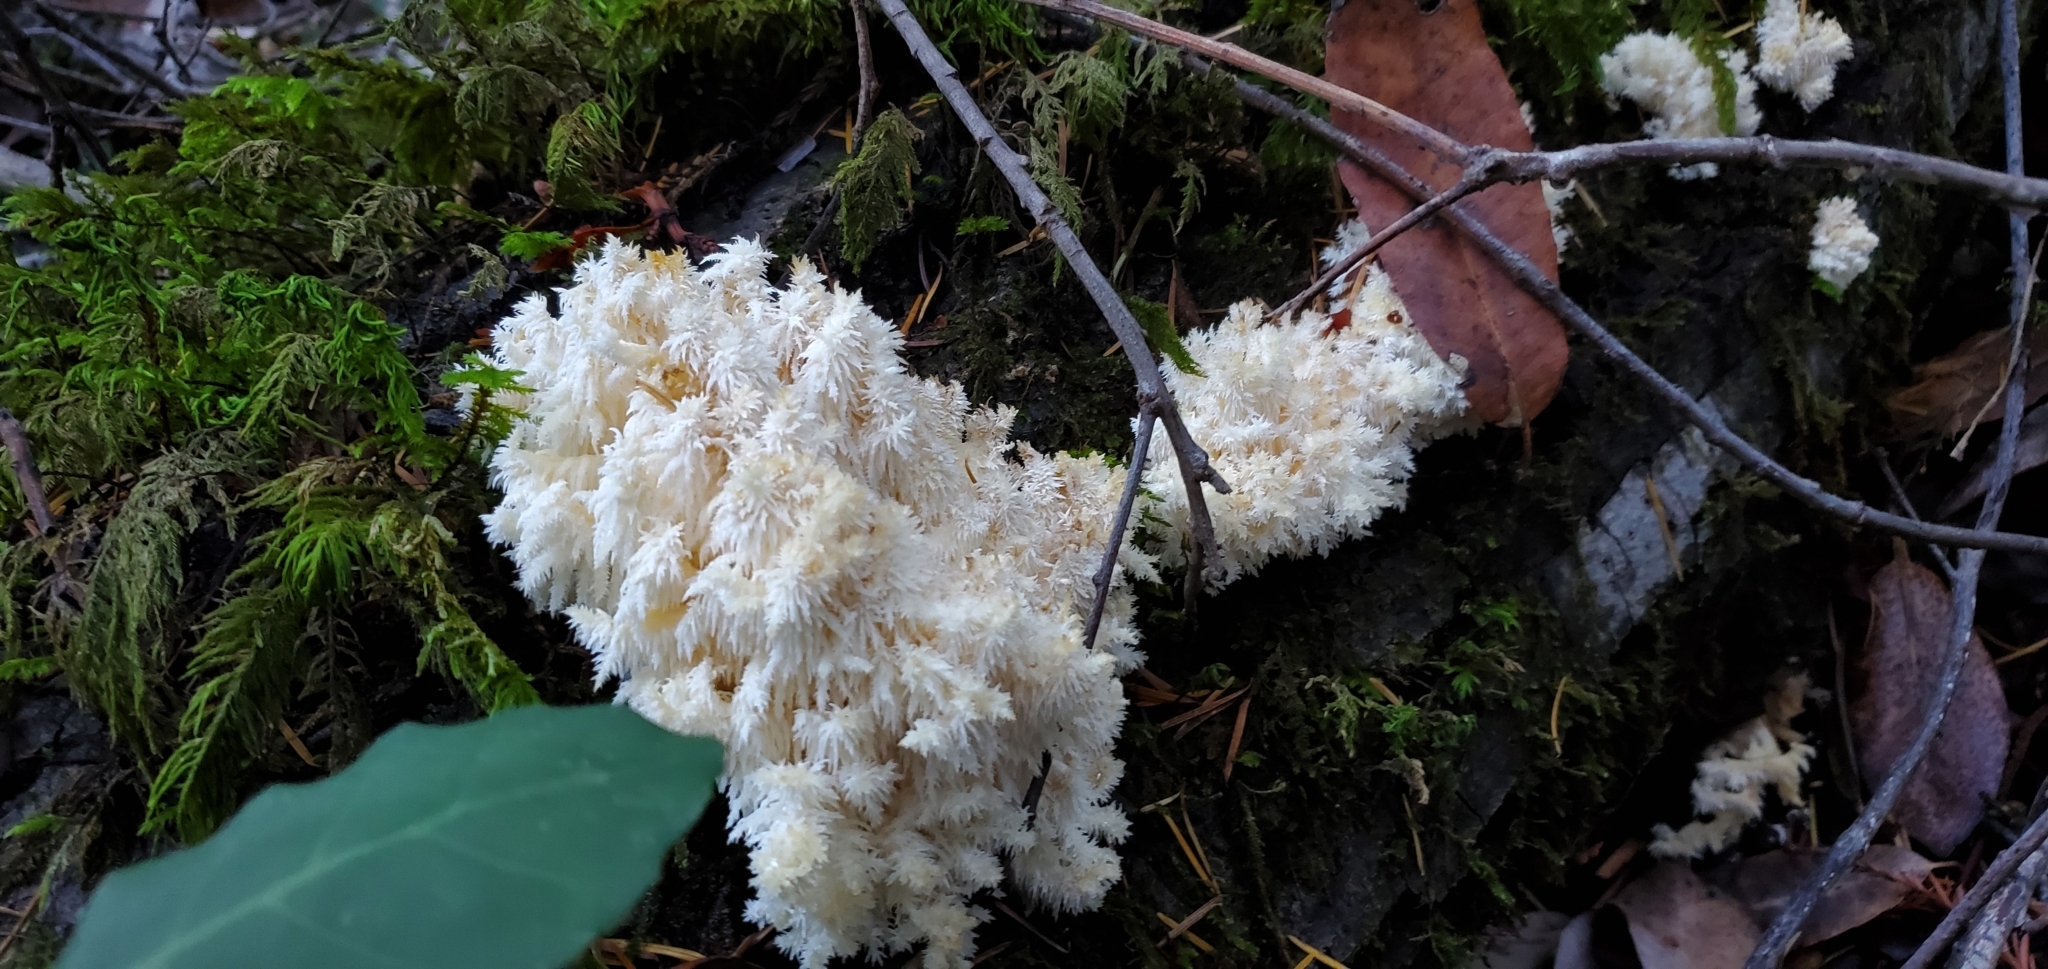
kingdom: Fungi
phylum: Basidiomycota
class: Agaricomycetes
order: Russulales
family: Hericiaceae
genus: Hericium
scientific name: Hericium coralloides
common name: Coral tooth
